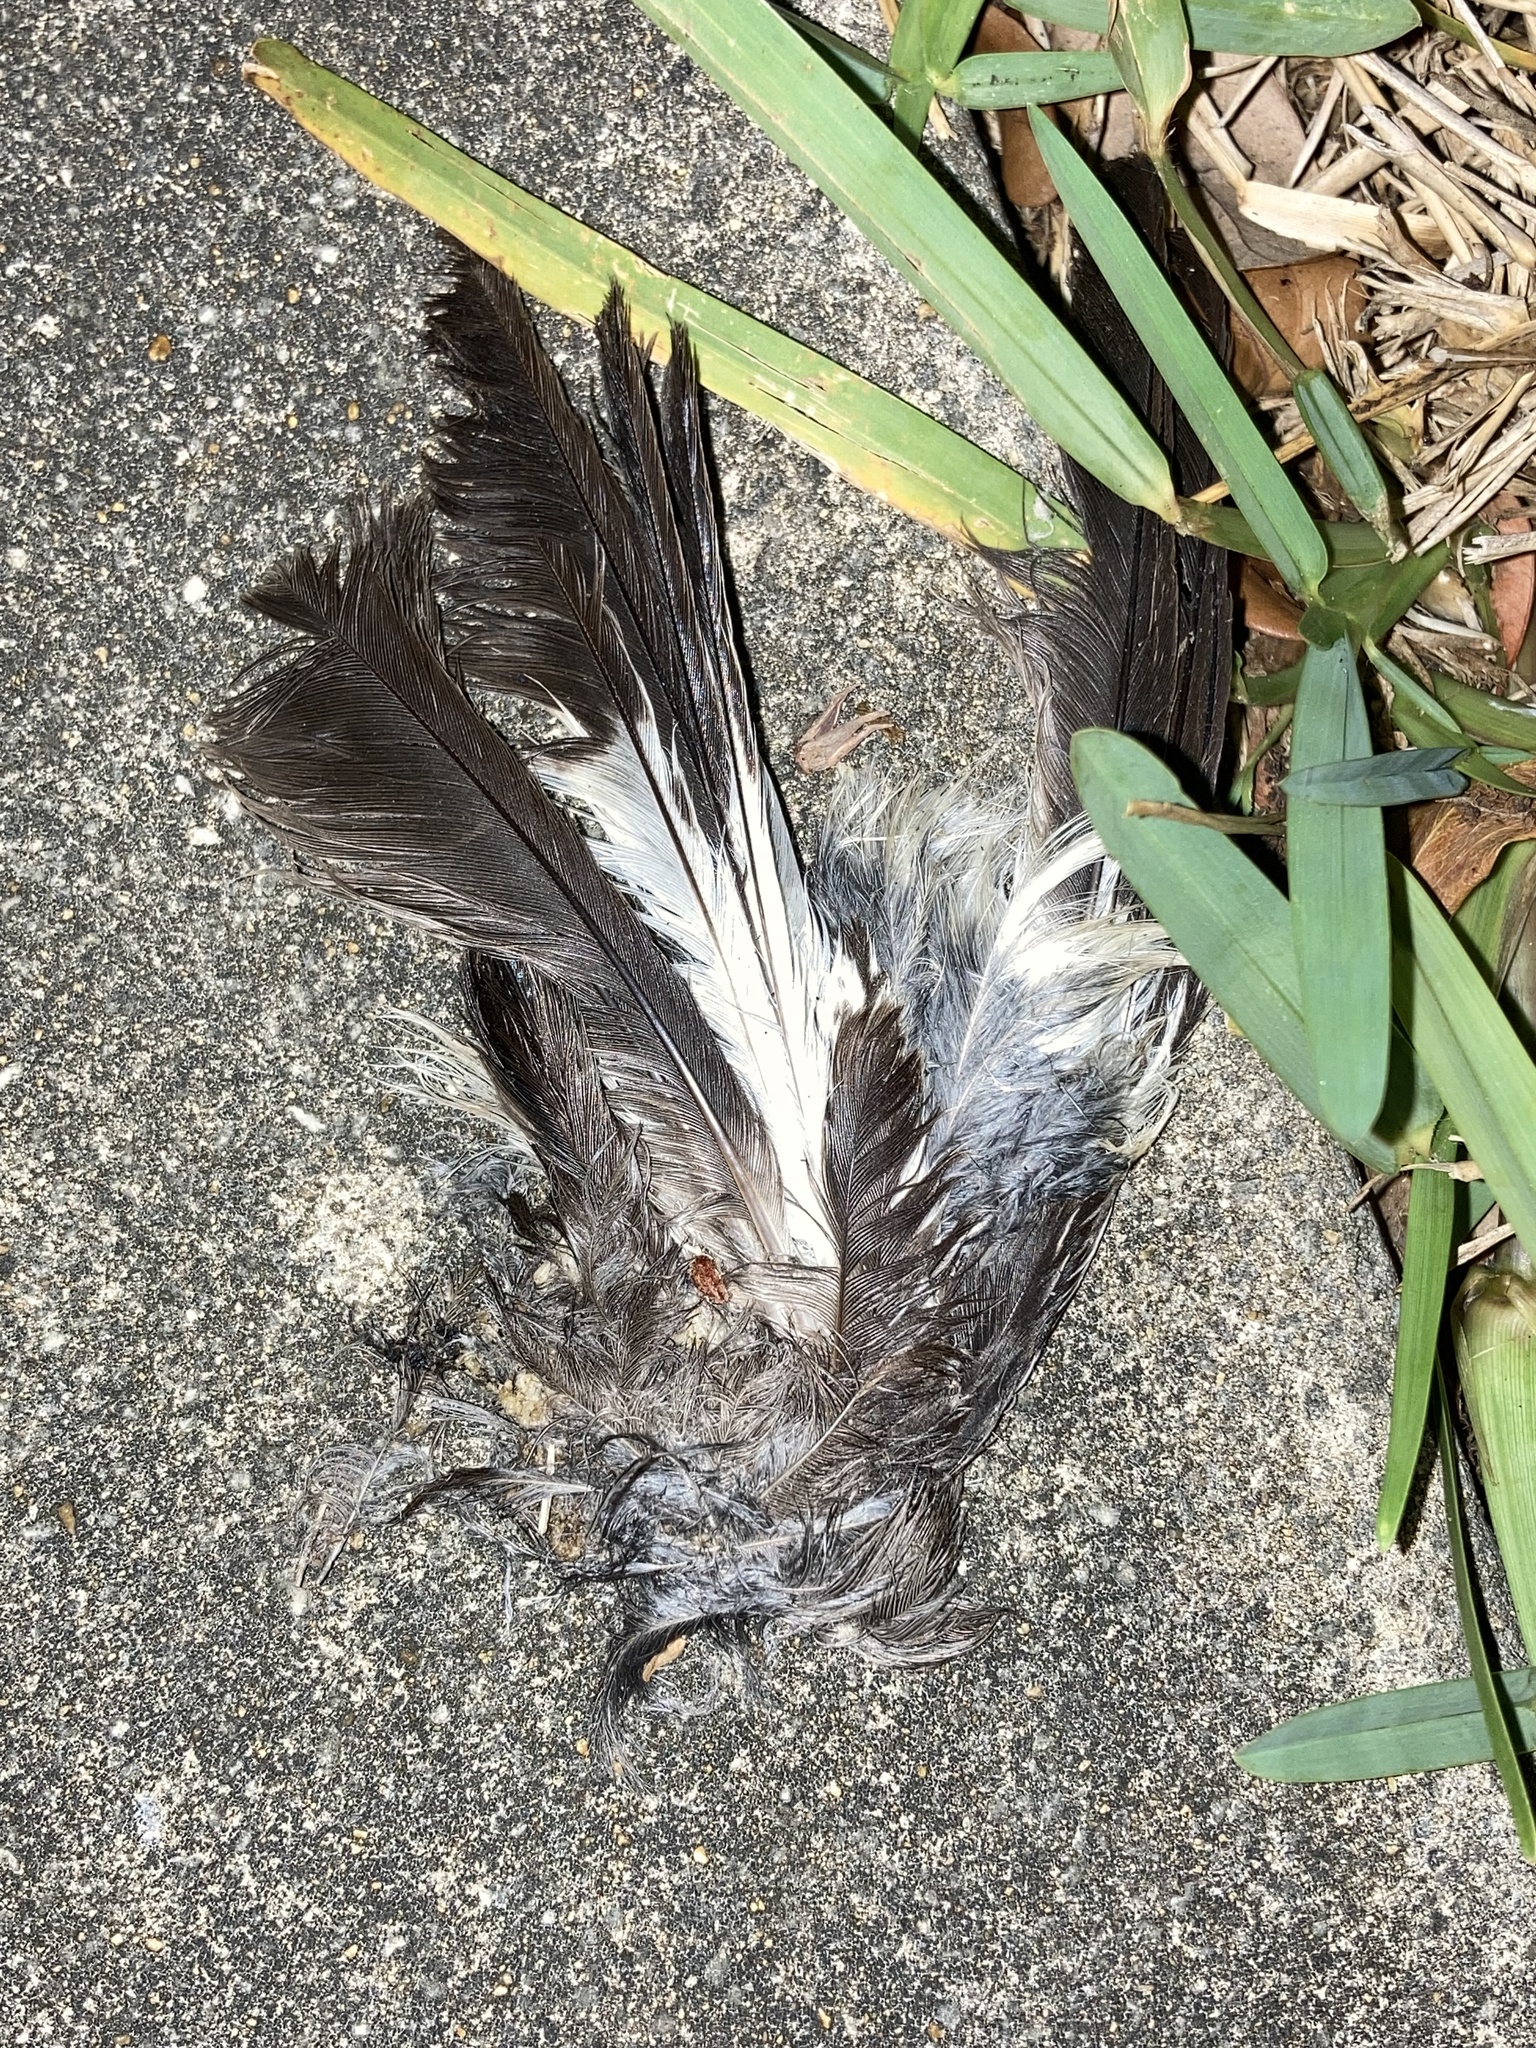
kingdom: Animalia
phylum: Chordata
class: Aves
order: Passeriformes
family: Mimidae
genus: Mimus
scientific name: Mimus polyglottos
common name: Northern mockingbird
